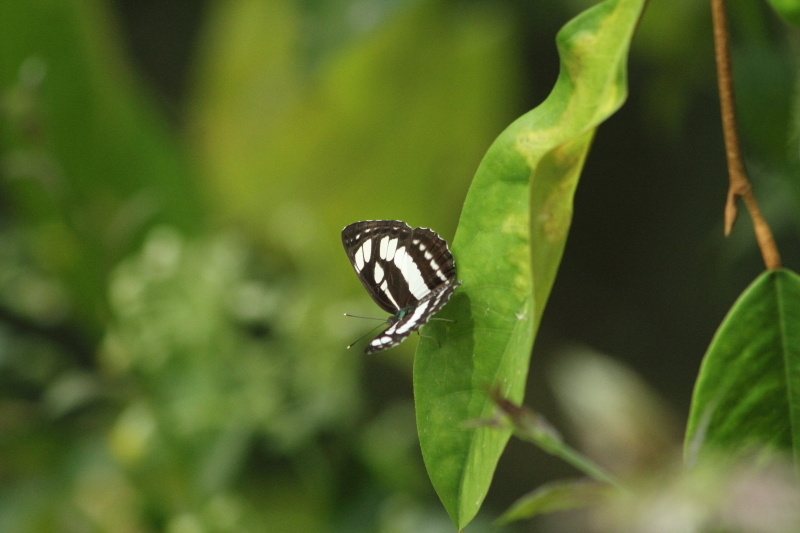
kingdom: Animalia
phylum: Arthropoda
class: Insecta
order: Lepidoptera
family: Nymphalidae
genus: Neptis
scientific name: Neptis hylas
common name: Common sailer
